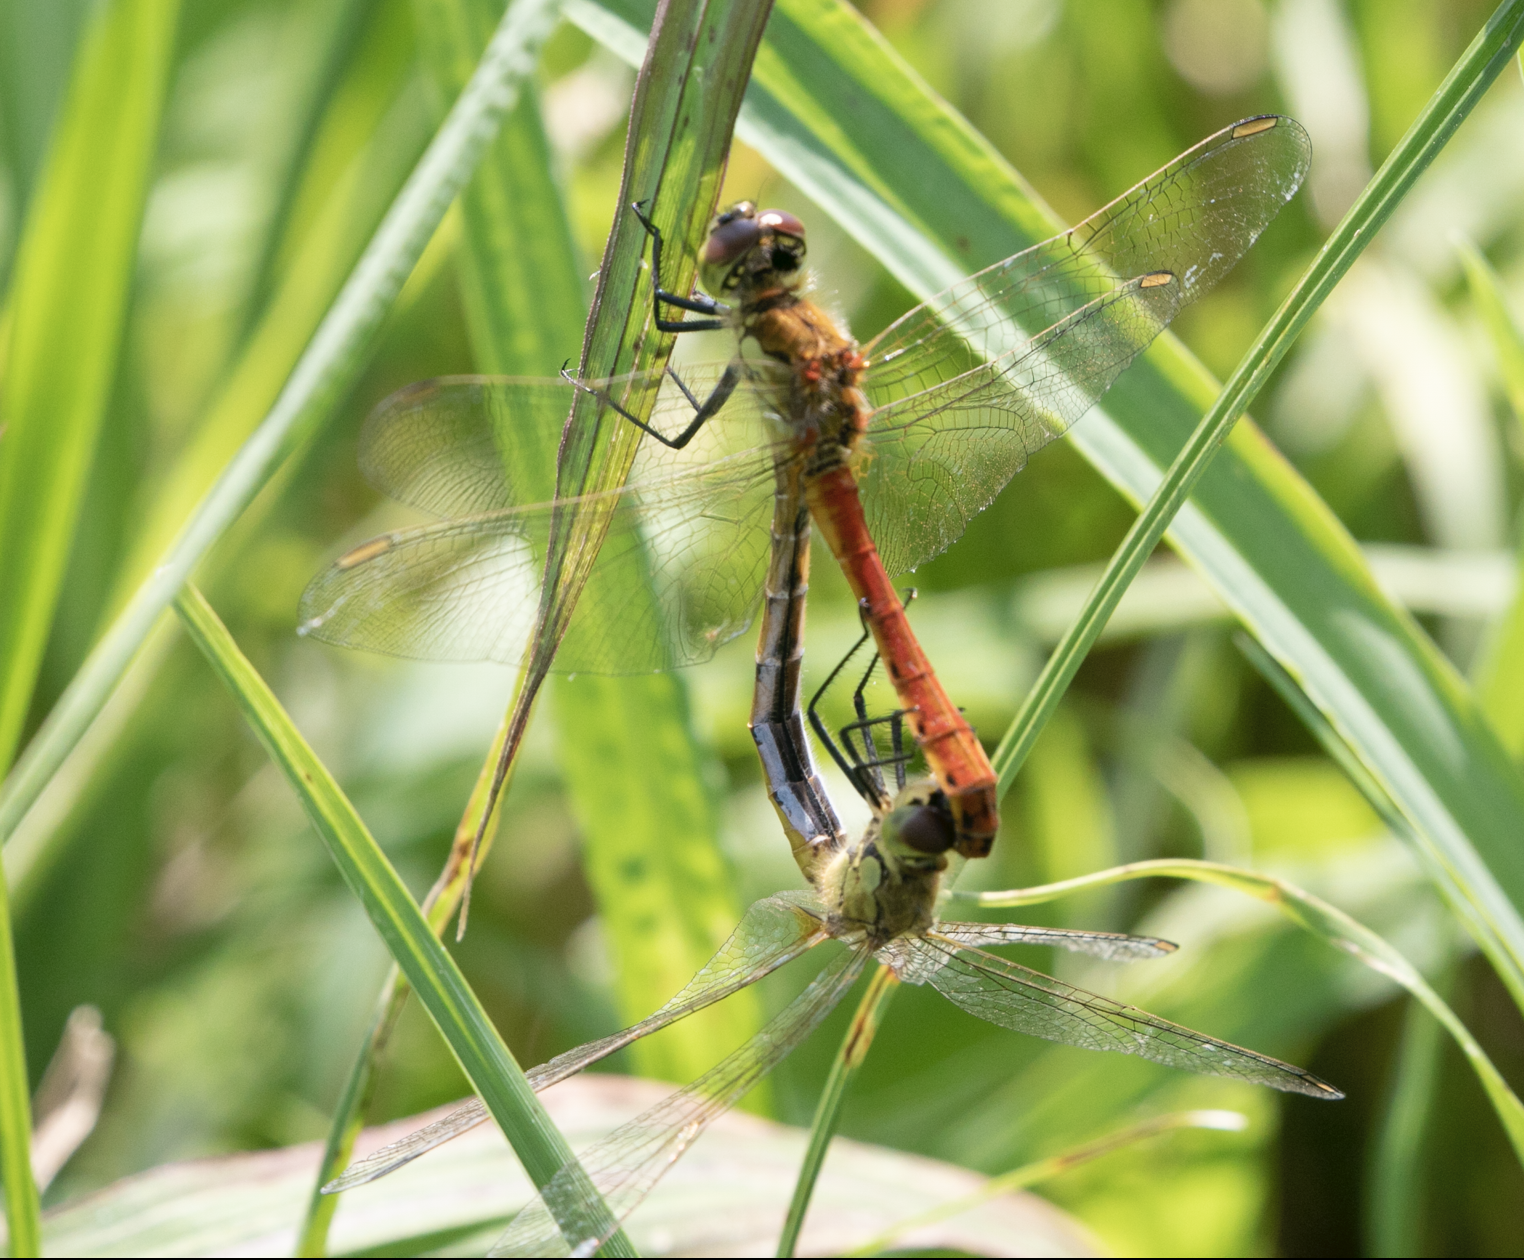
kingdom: Animalia
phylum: Arthropoda
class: Insecta
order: Odonata
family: Libellulidae
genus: Sympetrum
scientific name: Sympetrum depressiusculum
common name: Spotted darter
